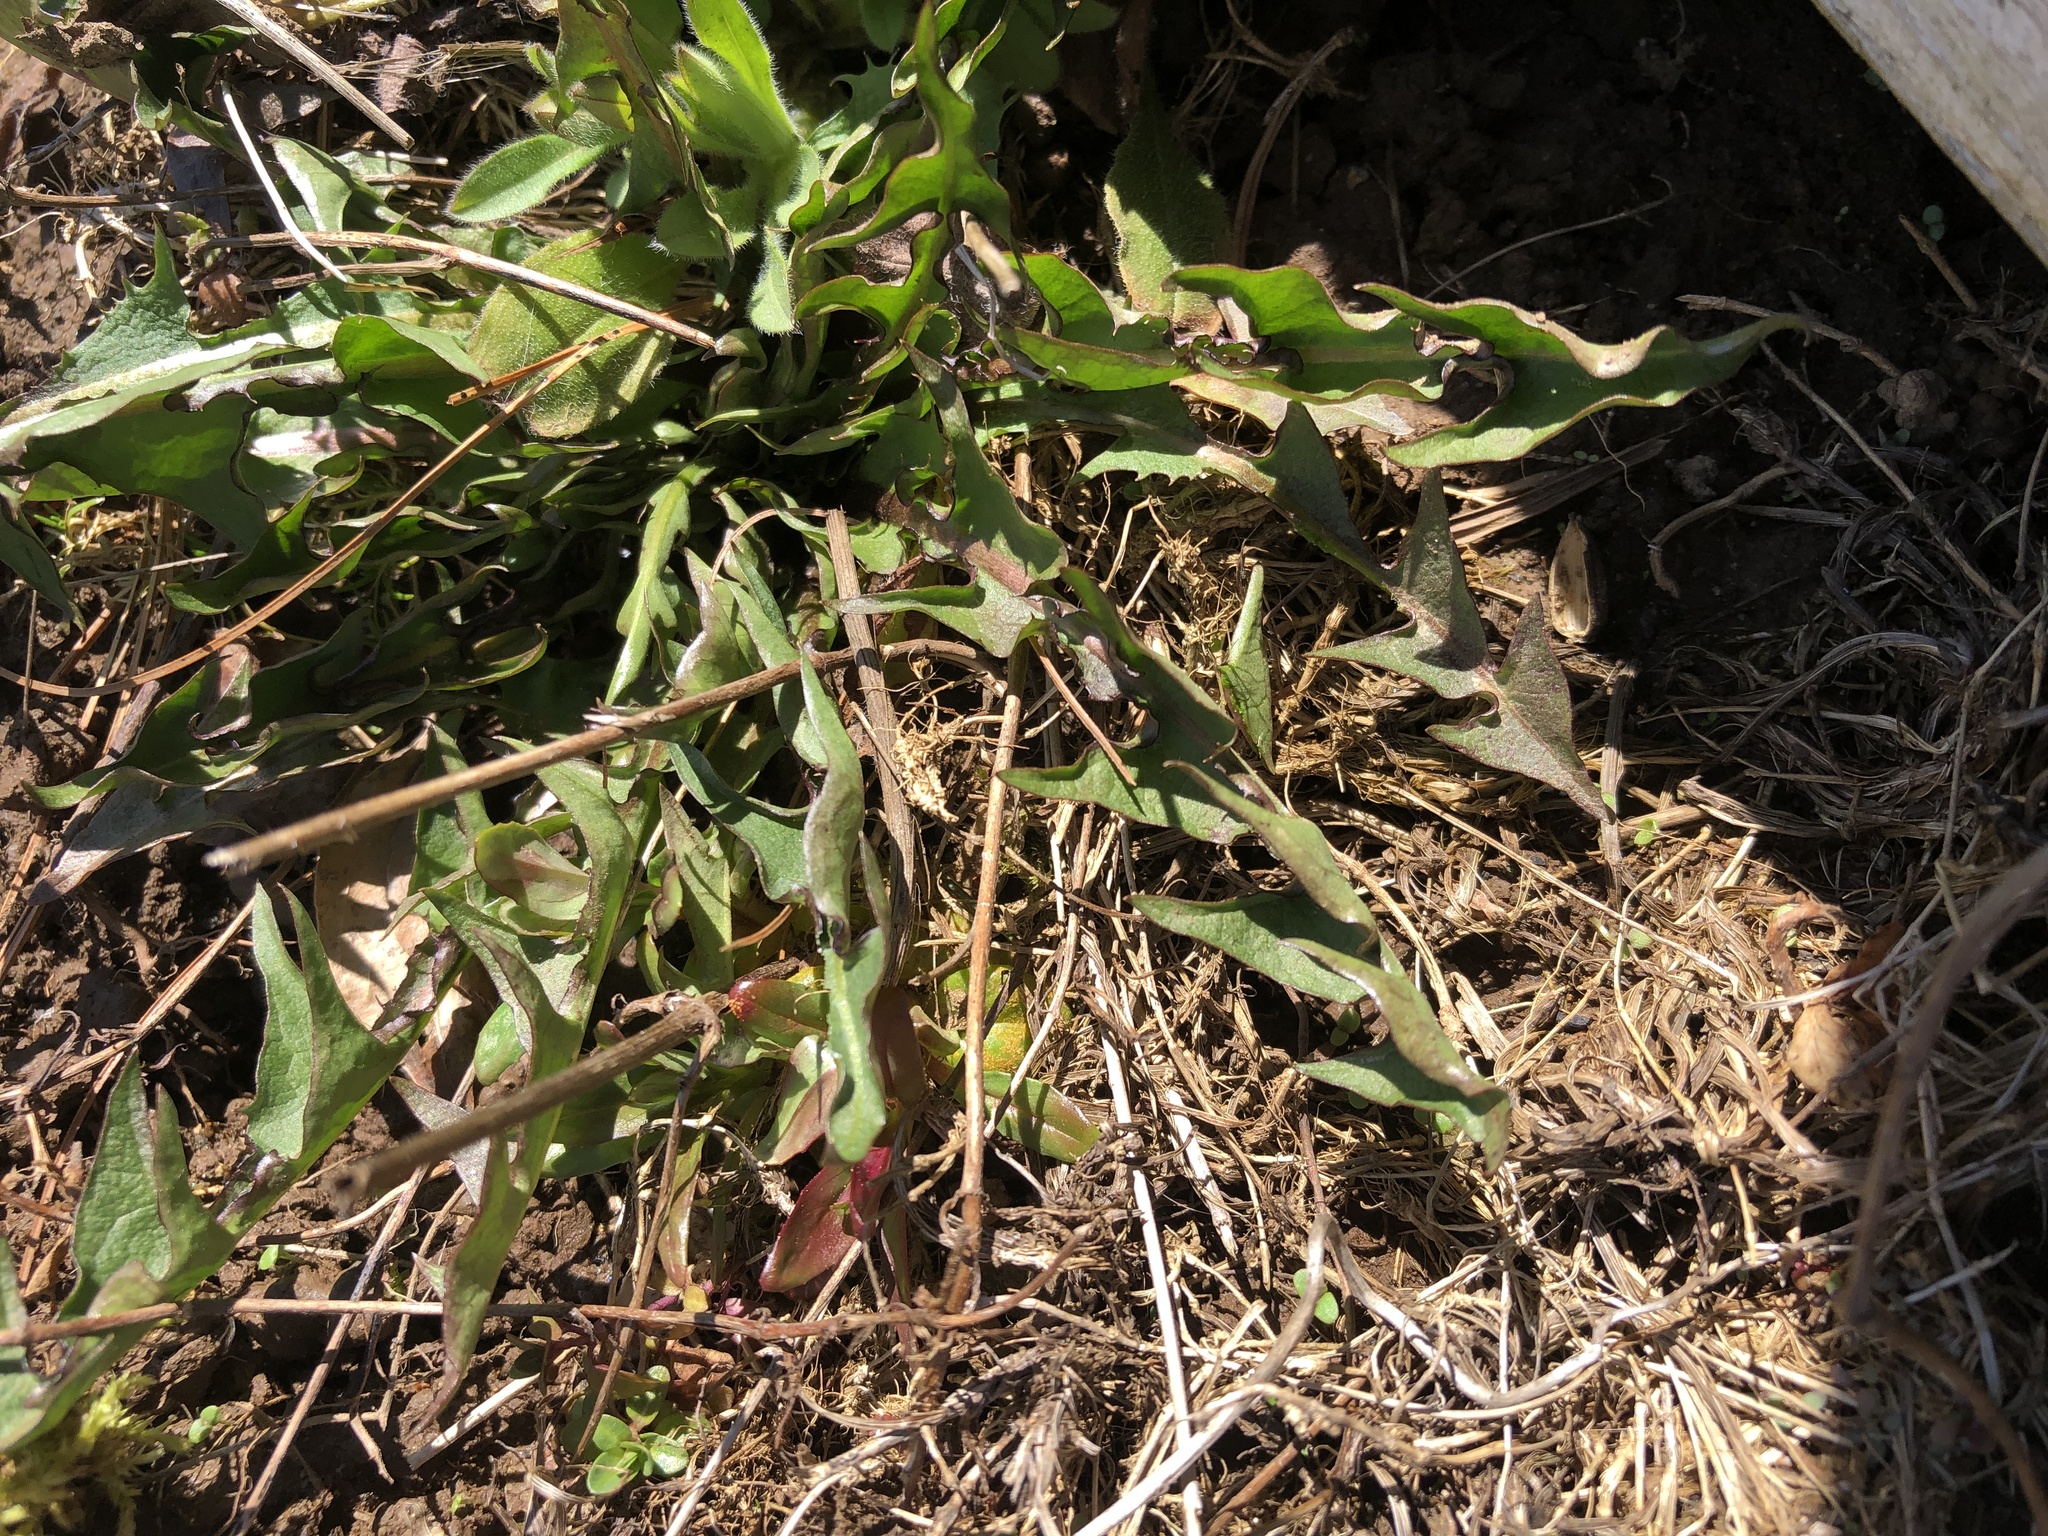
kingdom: Plantae
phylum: Tracheophyta
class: Magnoliopsida
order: Asterales
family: Asteraceae
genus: Taraxacum
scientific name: Taraxacum officinale
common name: Common dandelion
